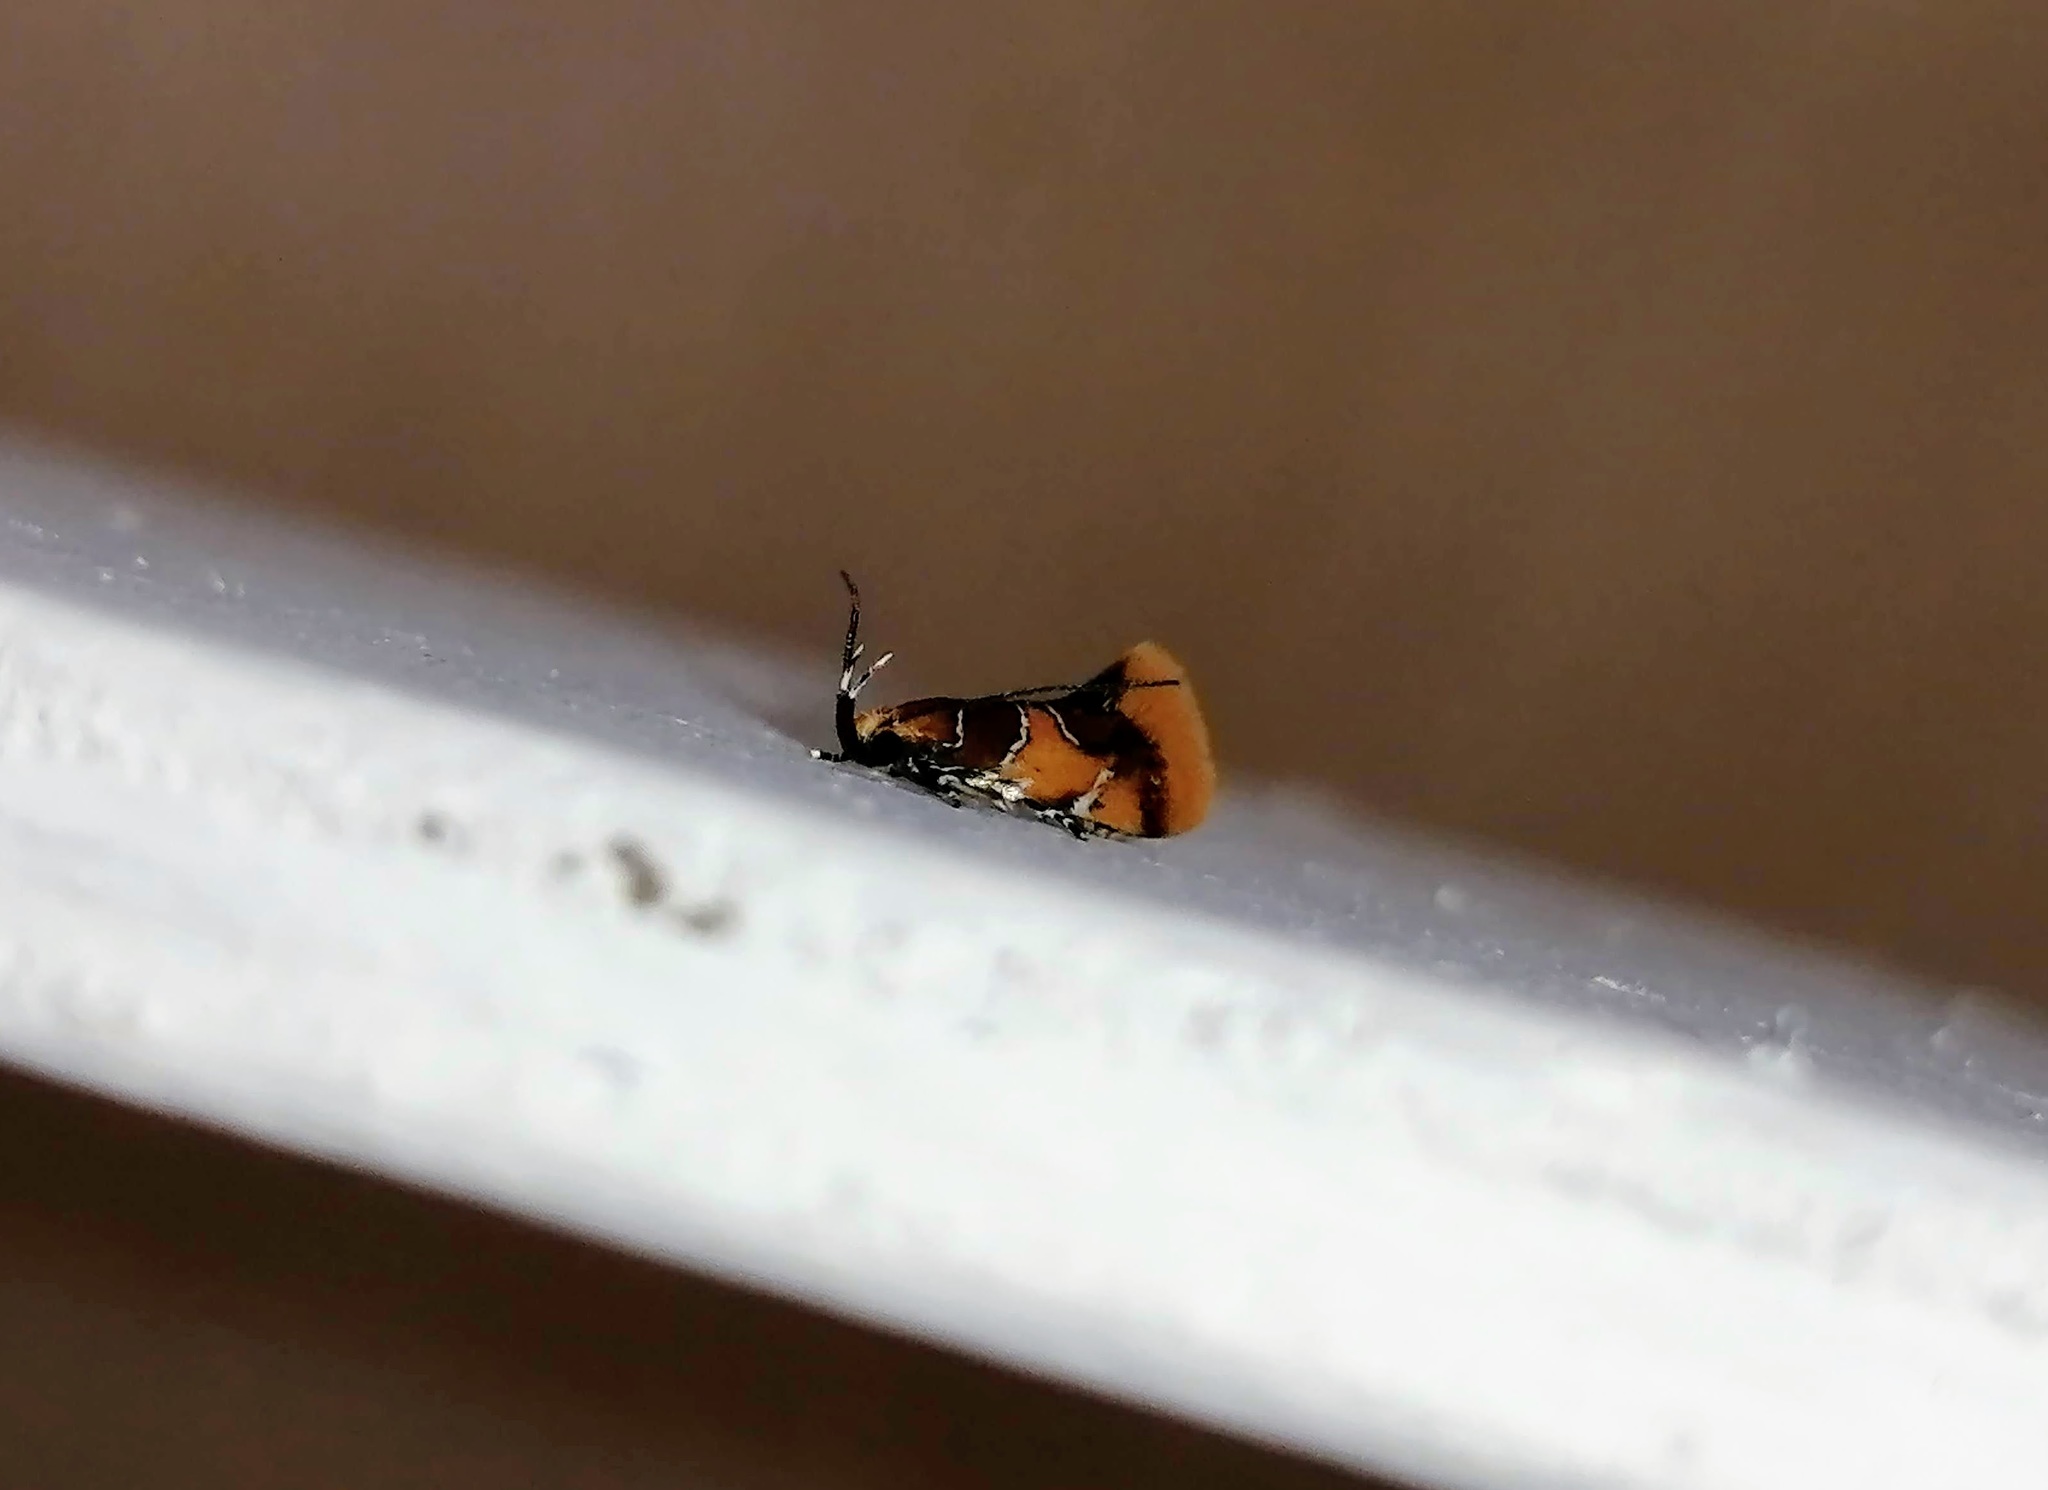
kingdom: Animalia
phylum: Arthropoda
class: Insecta
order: Lepidoptera
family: Oecophoridae
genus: Callima
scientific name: Callima argenticinctella
